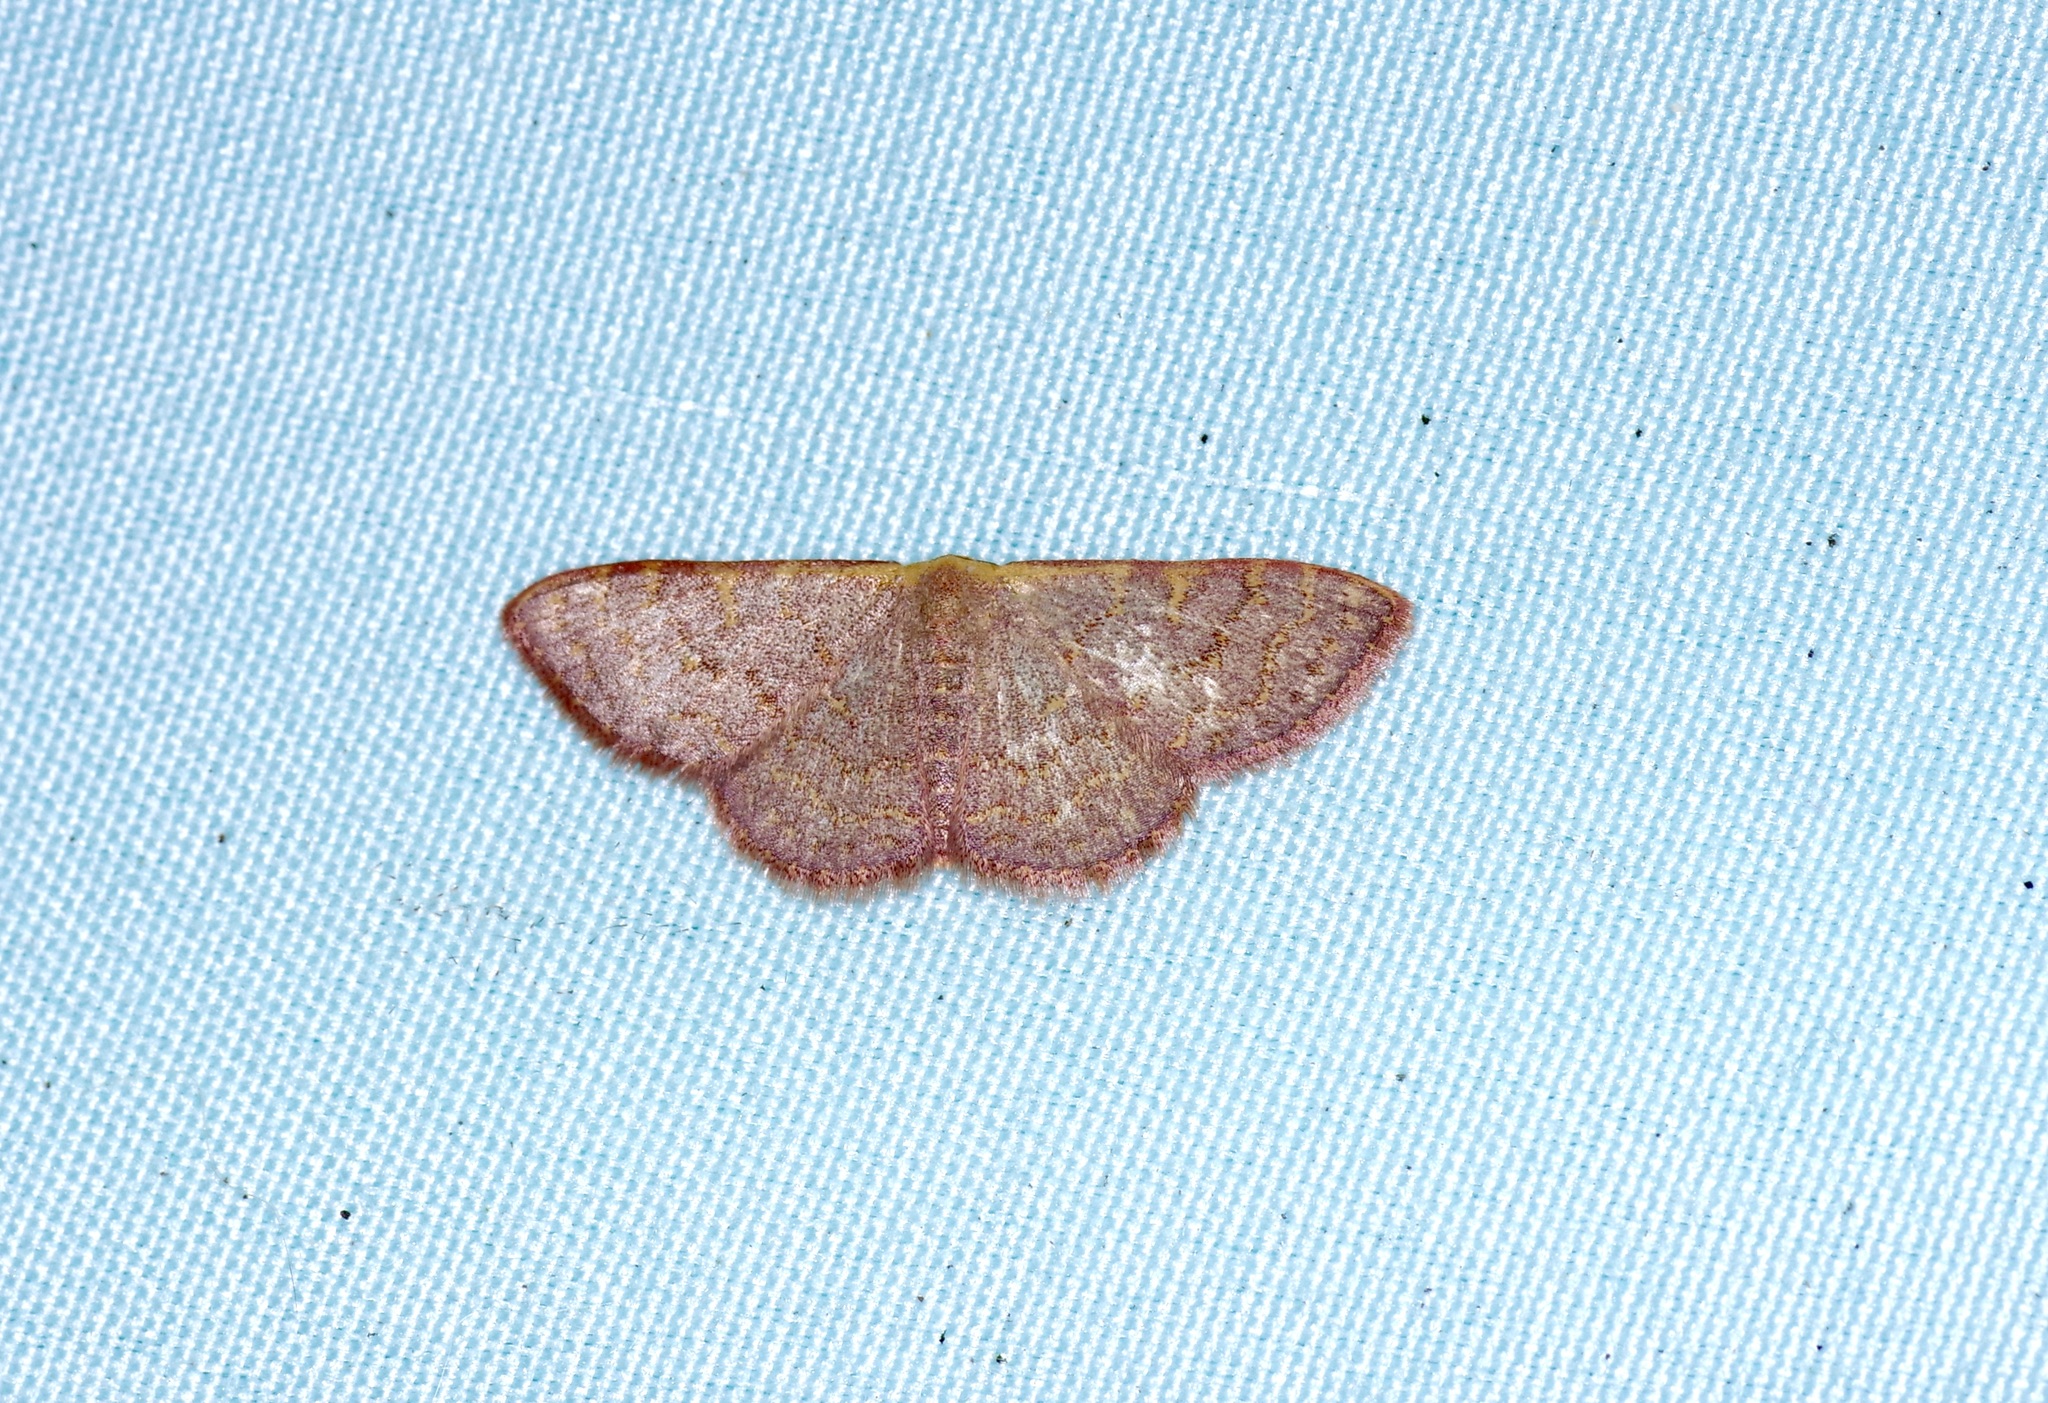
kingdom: Animalia
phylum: Arthropoda
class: Insecta
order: Lepidoptera
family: Geometridae
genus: Leptostales
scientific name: Leptostales pannaria
